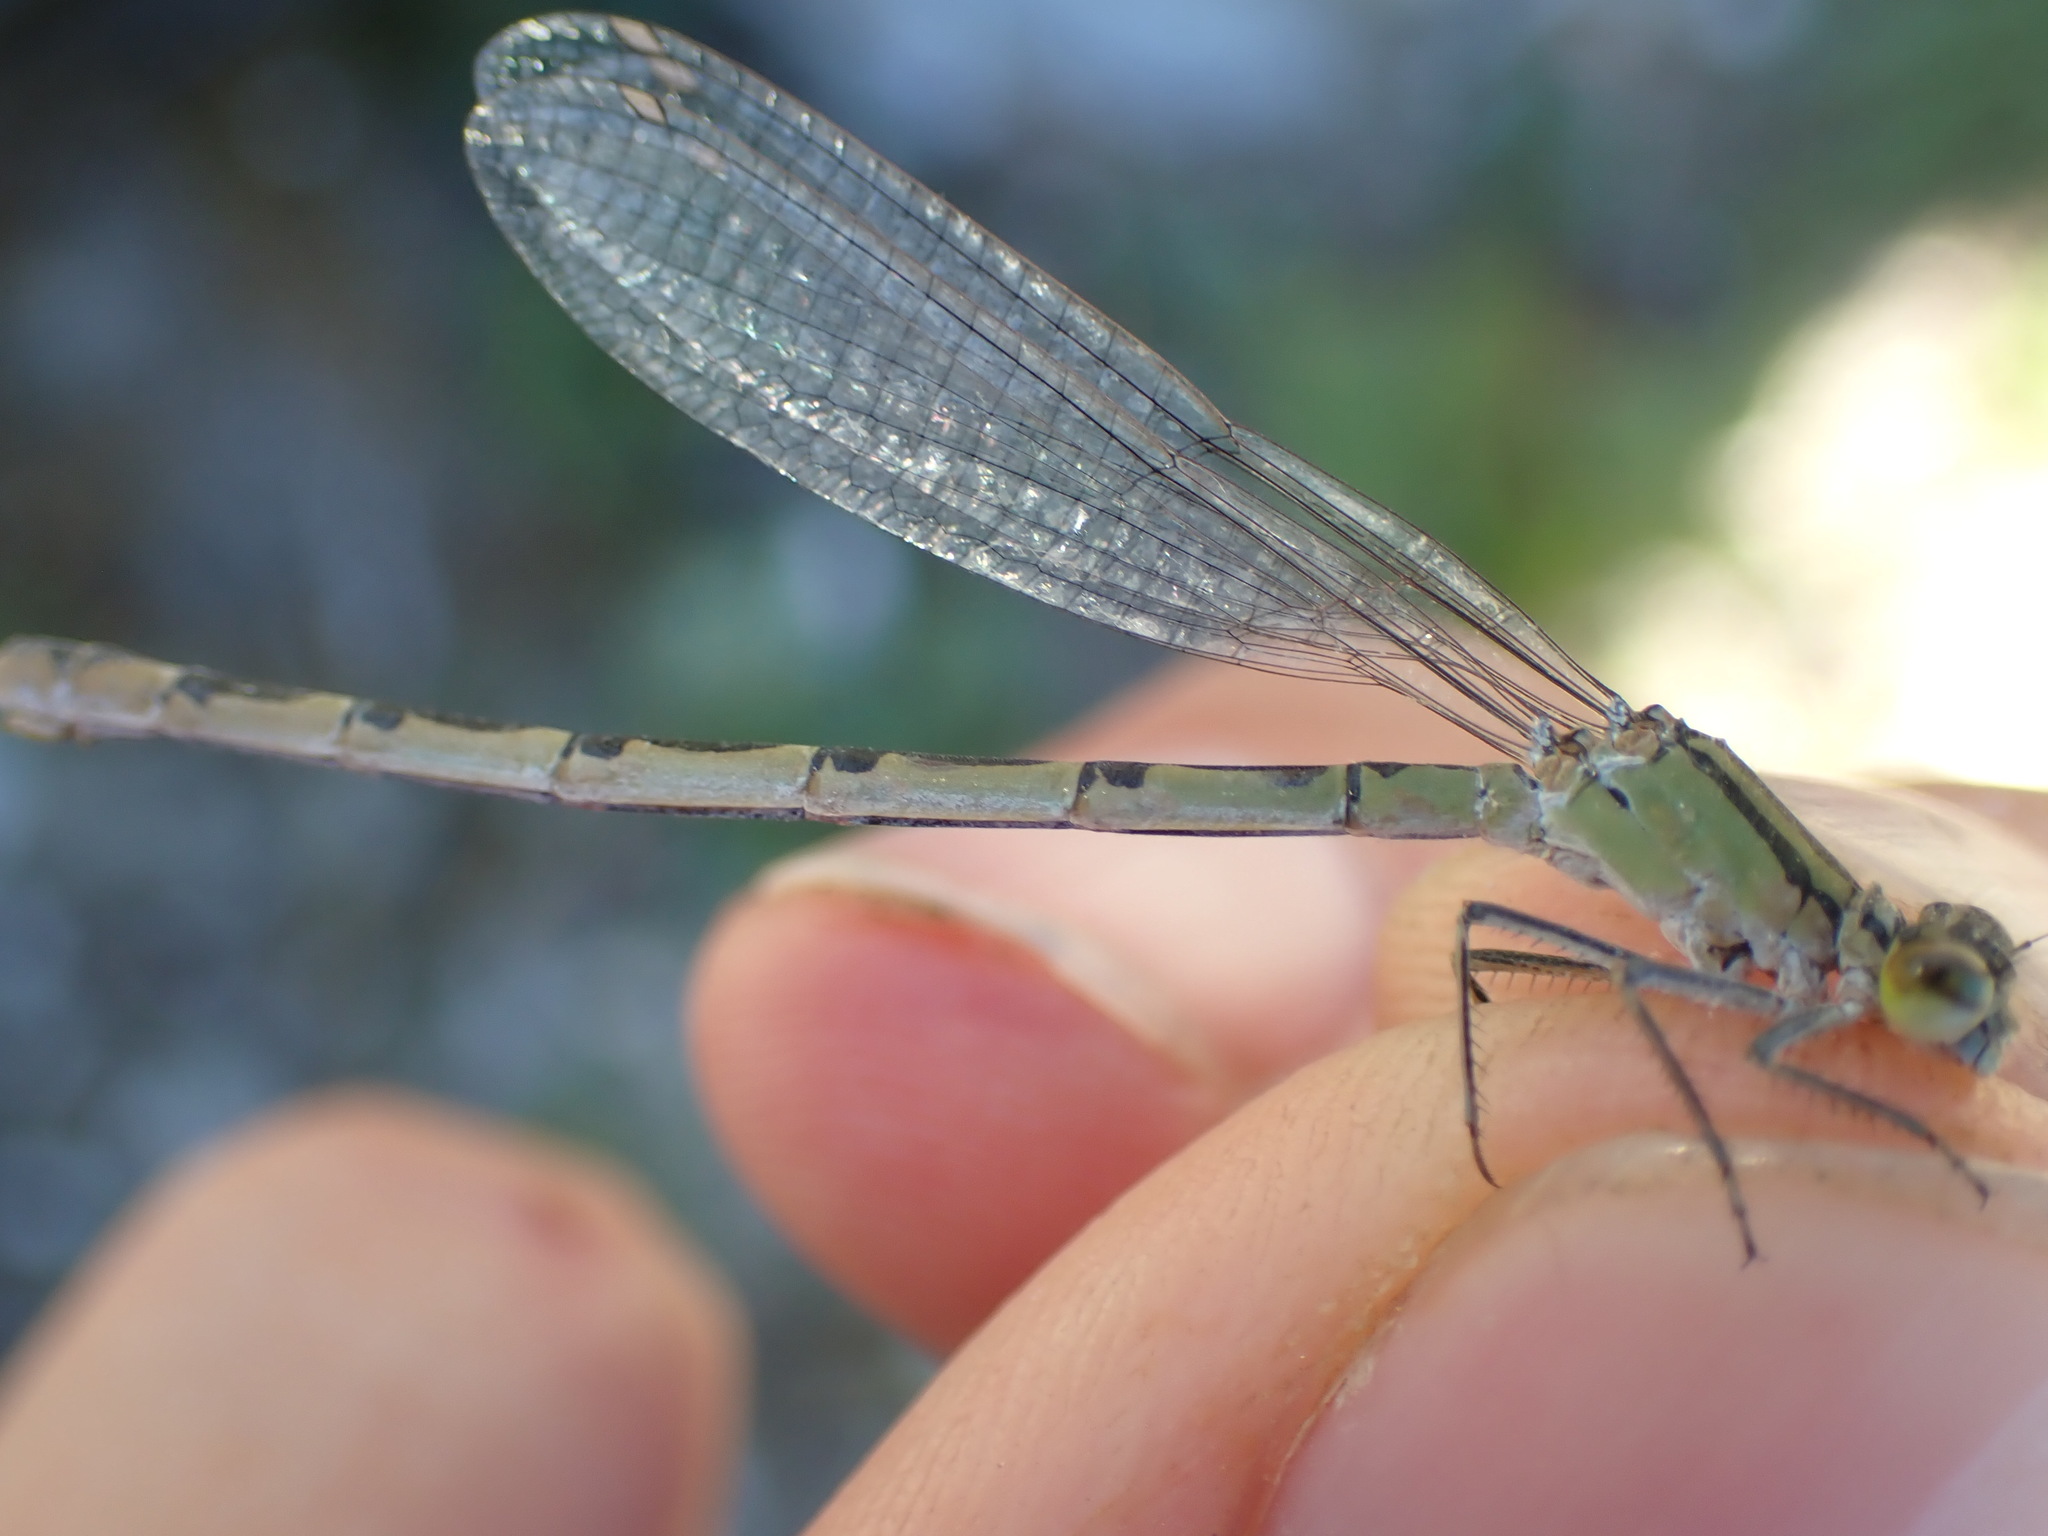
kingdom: Animalia
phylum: Arthropoda
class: Insecta
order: Odonata
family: Coenagrionidae
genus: Enallagma
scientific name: Enallagma cyathigerum
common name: Common blue damselfly
